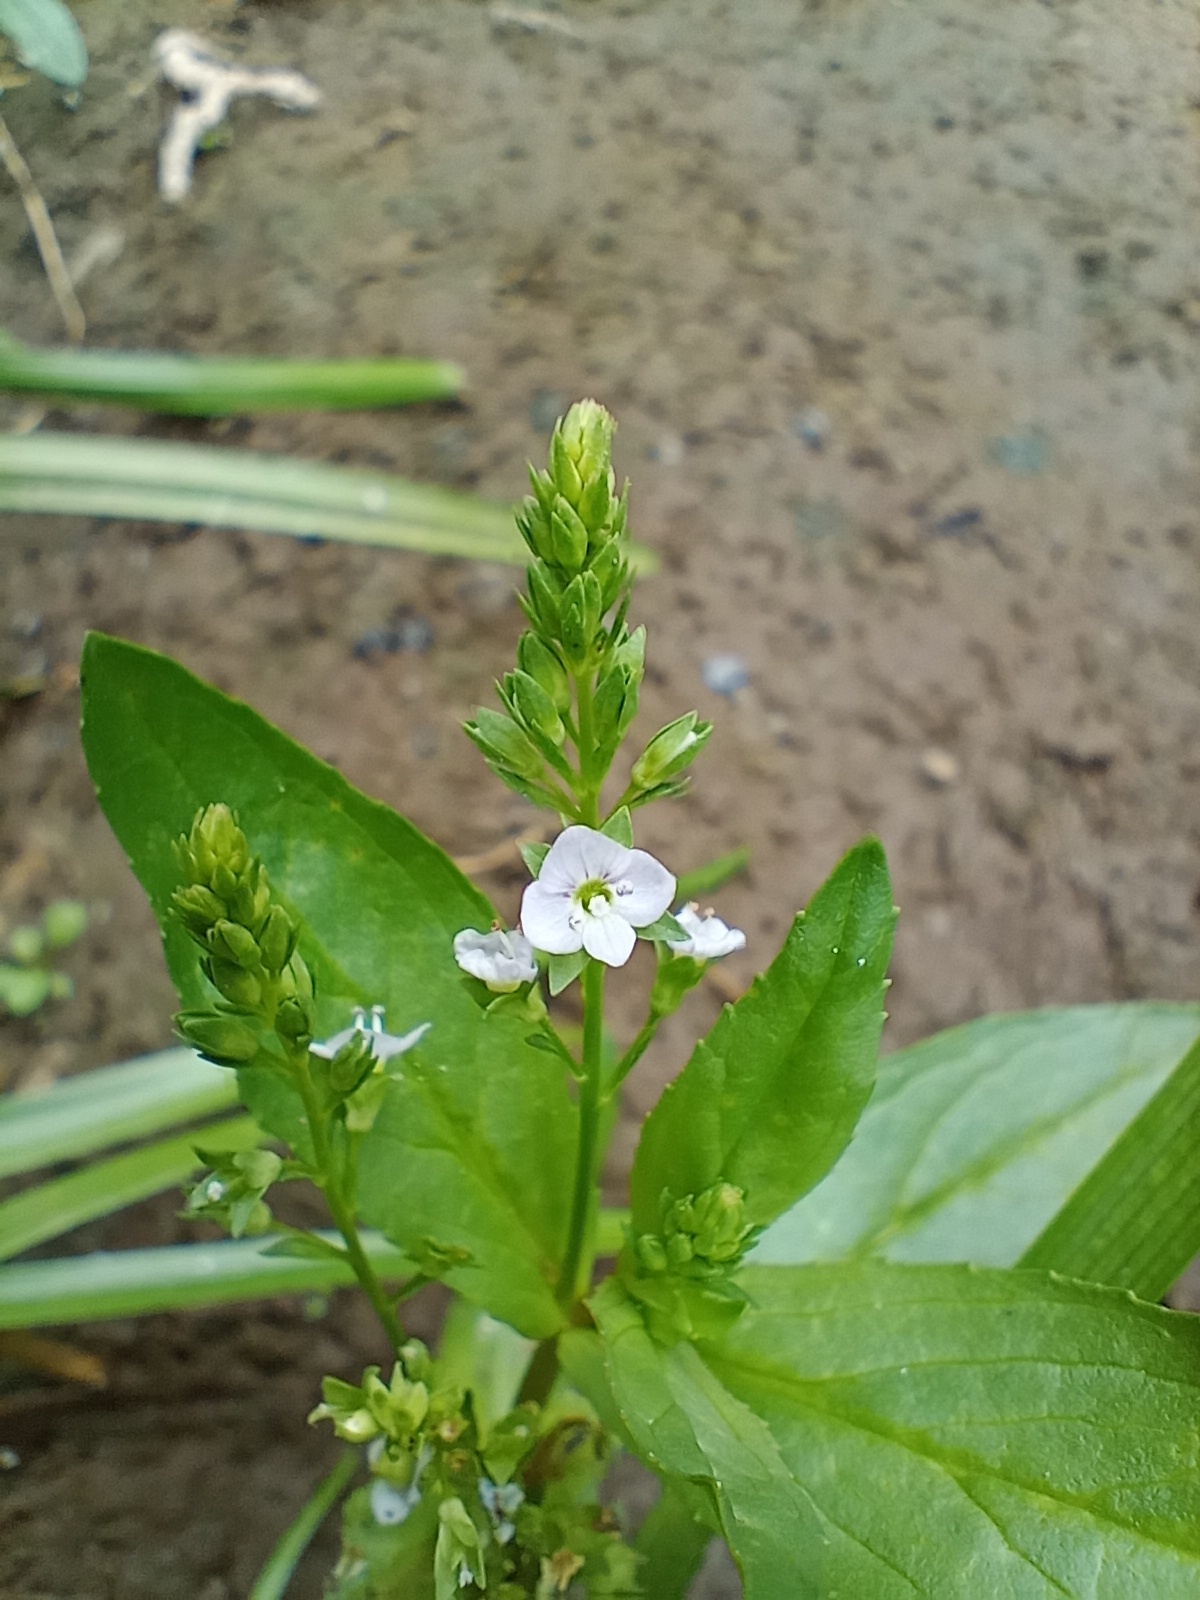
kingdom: Plantae
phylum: Tracheophyta
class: Magnoliopsida
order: Lamiales
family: Plantaginaceae
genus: Veronica
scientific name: Veronica anagallis-aquatica
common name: Water speedwell
